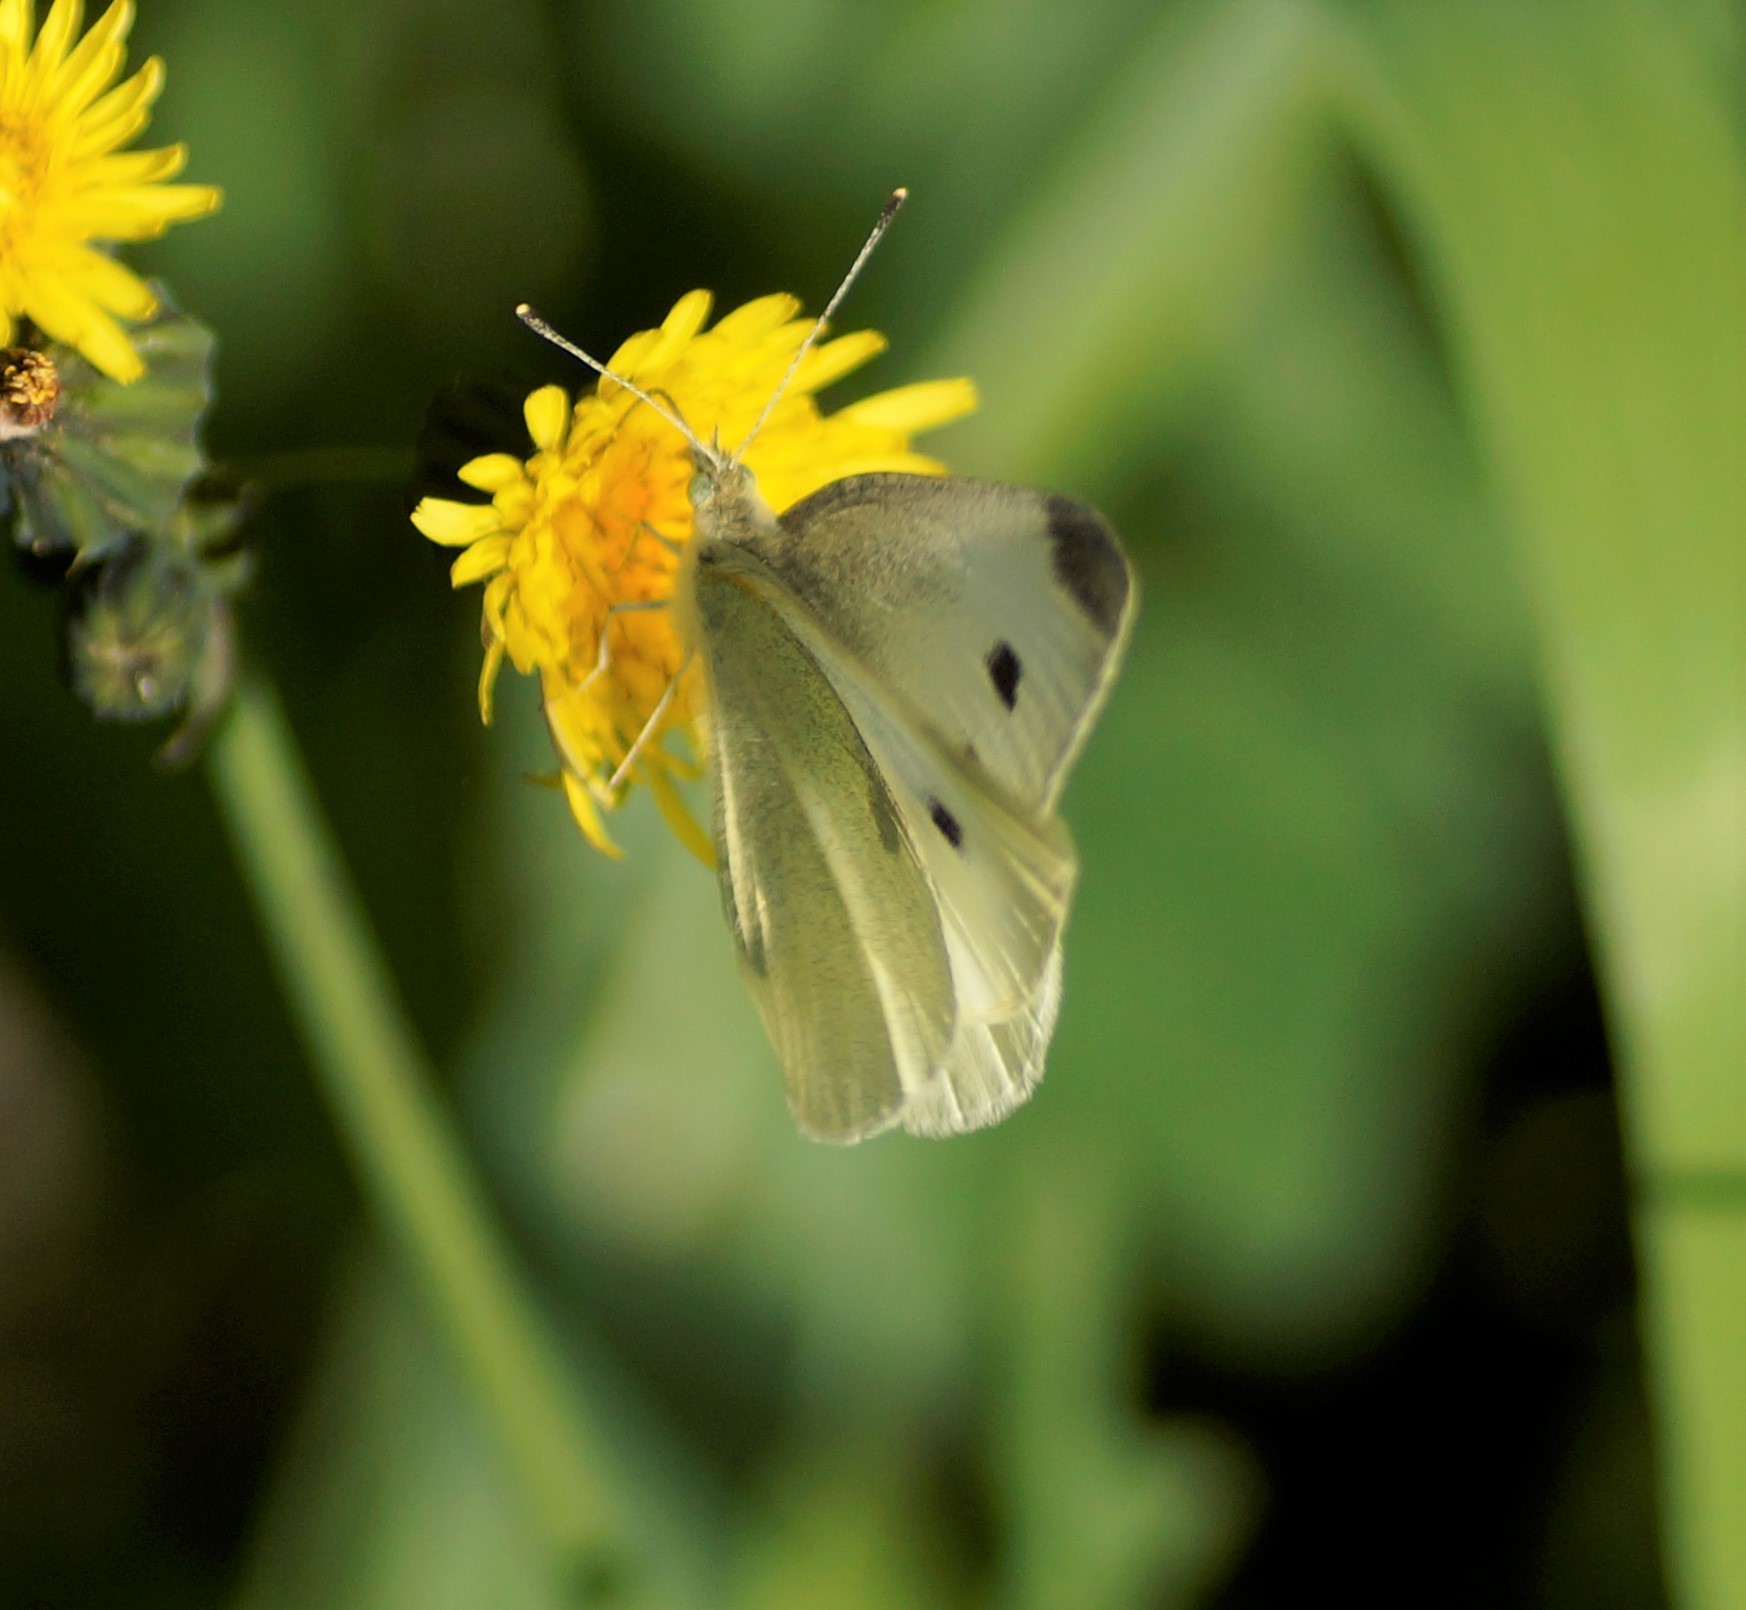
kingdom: Animalia
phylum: Arthropoda
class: Insecta
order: Lepidoptera
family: Pieridae
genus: Pieris
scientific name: Pieris rapae
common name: Small white
